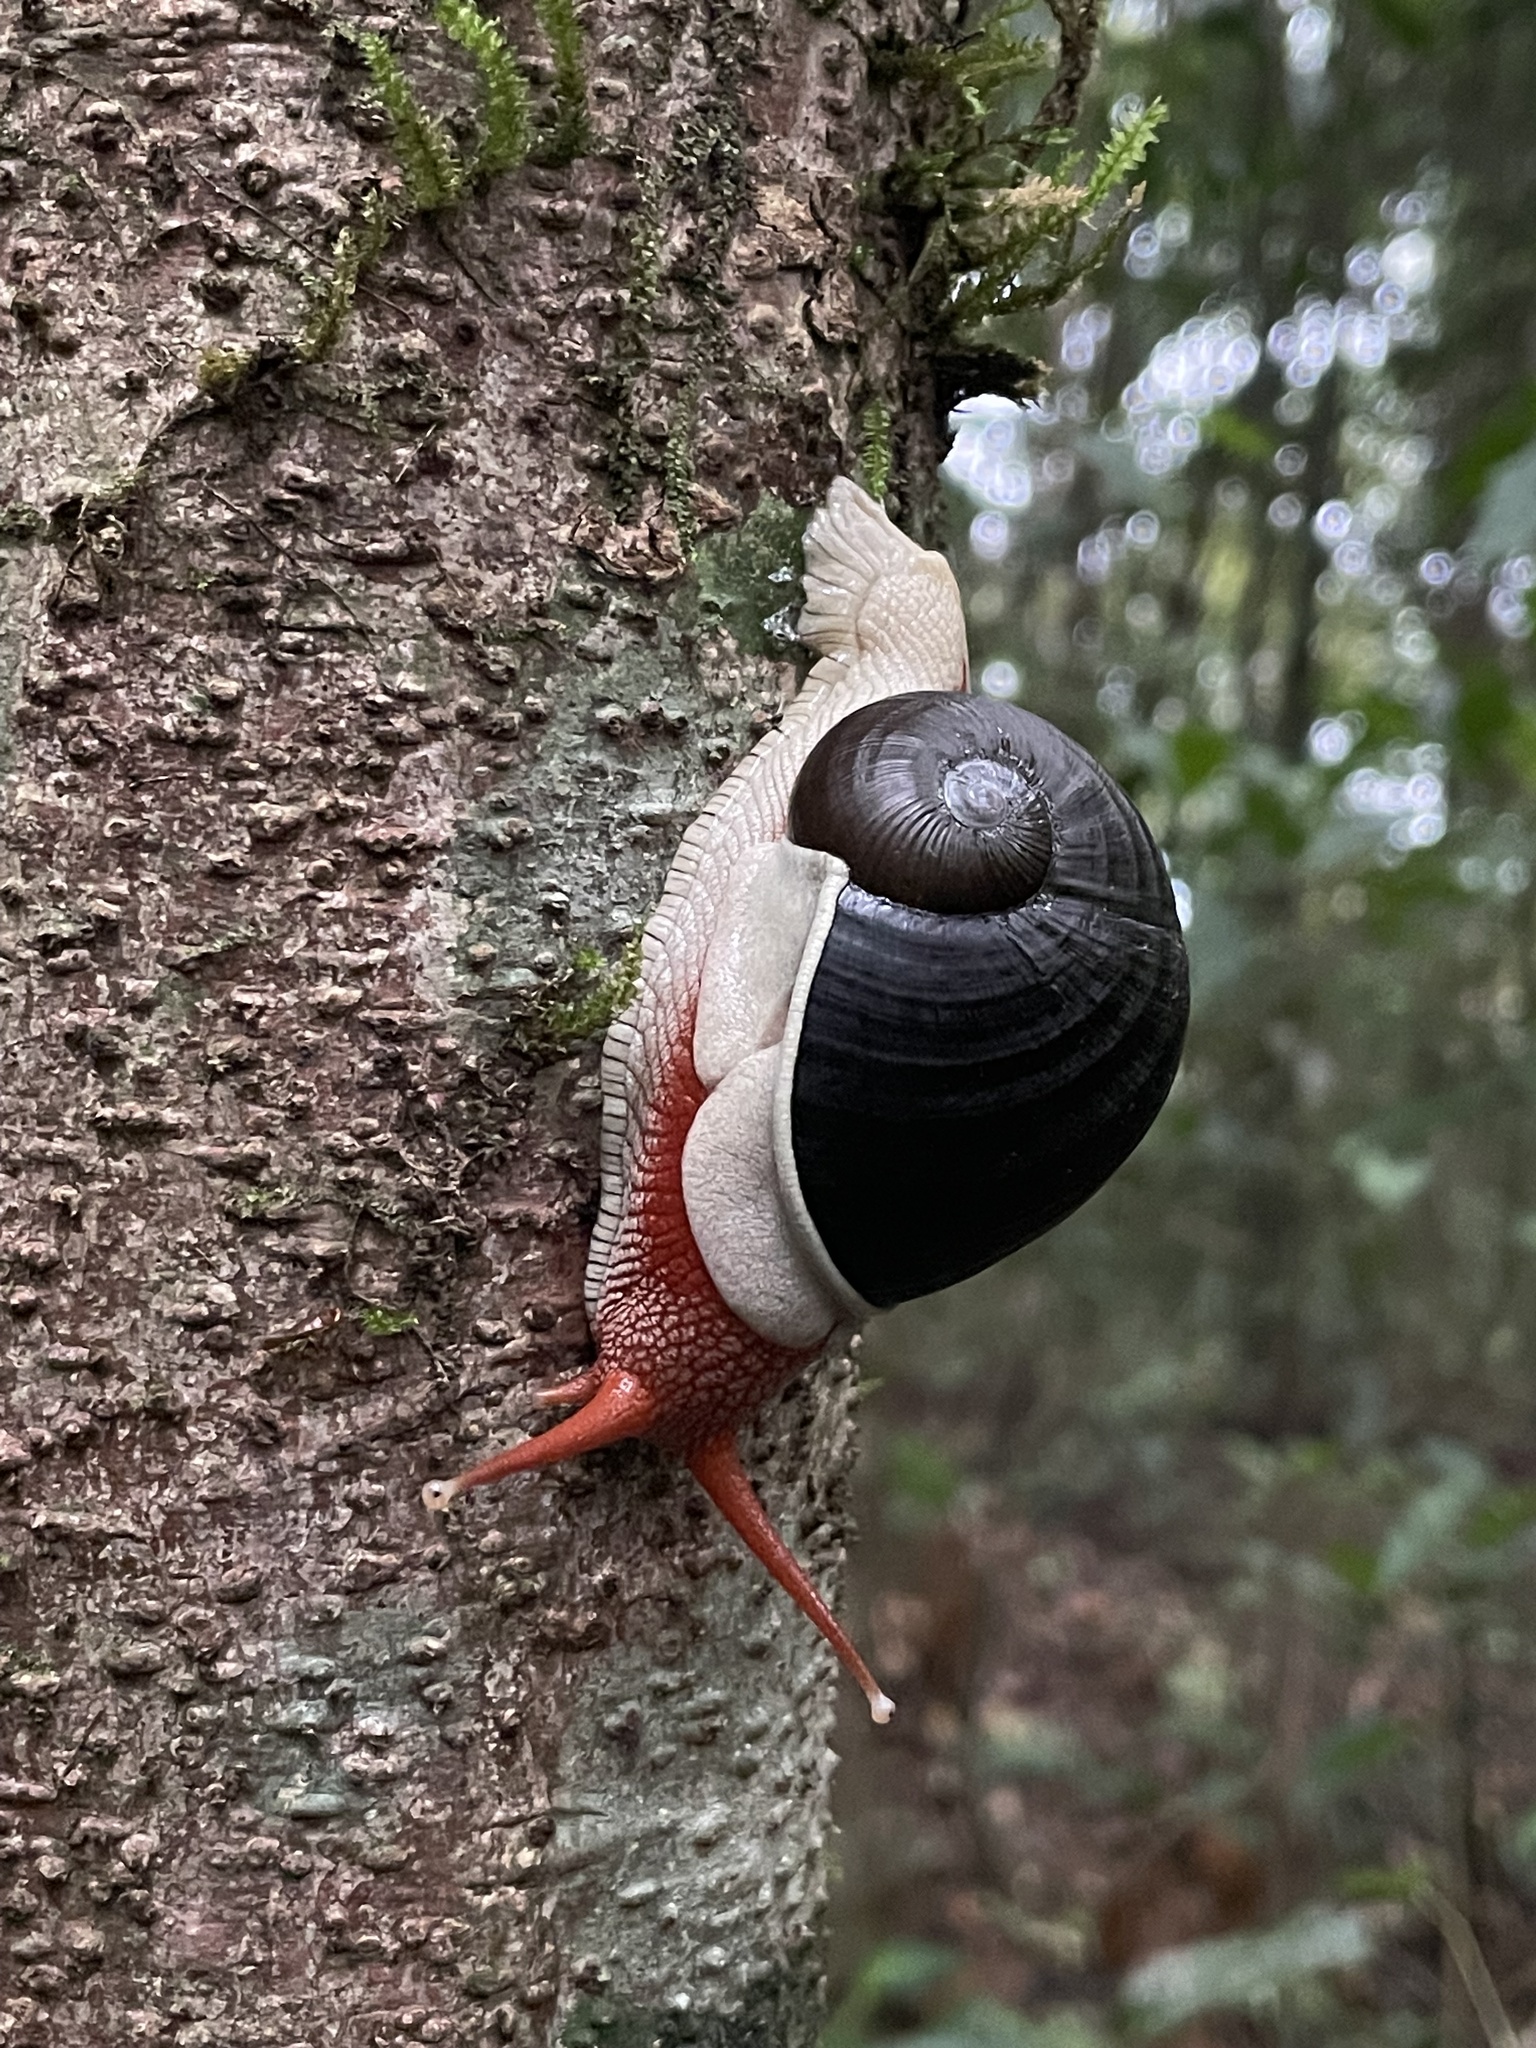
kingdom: Animalia
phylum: Mollusca
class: Gastropoda
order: Stylommatophora
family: Ariophantidae
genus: Indrella
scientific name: Indrella ampulla
